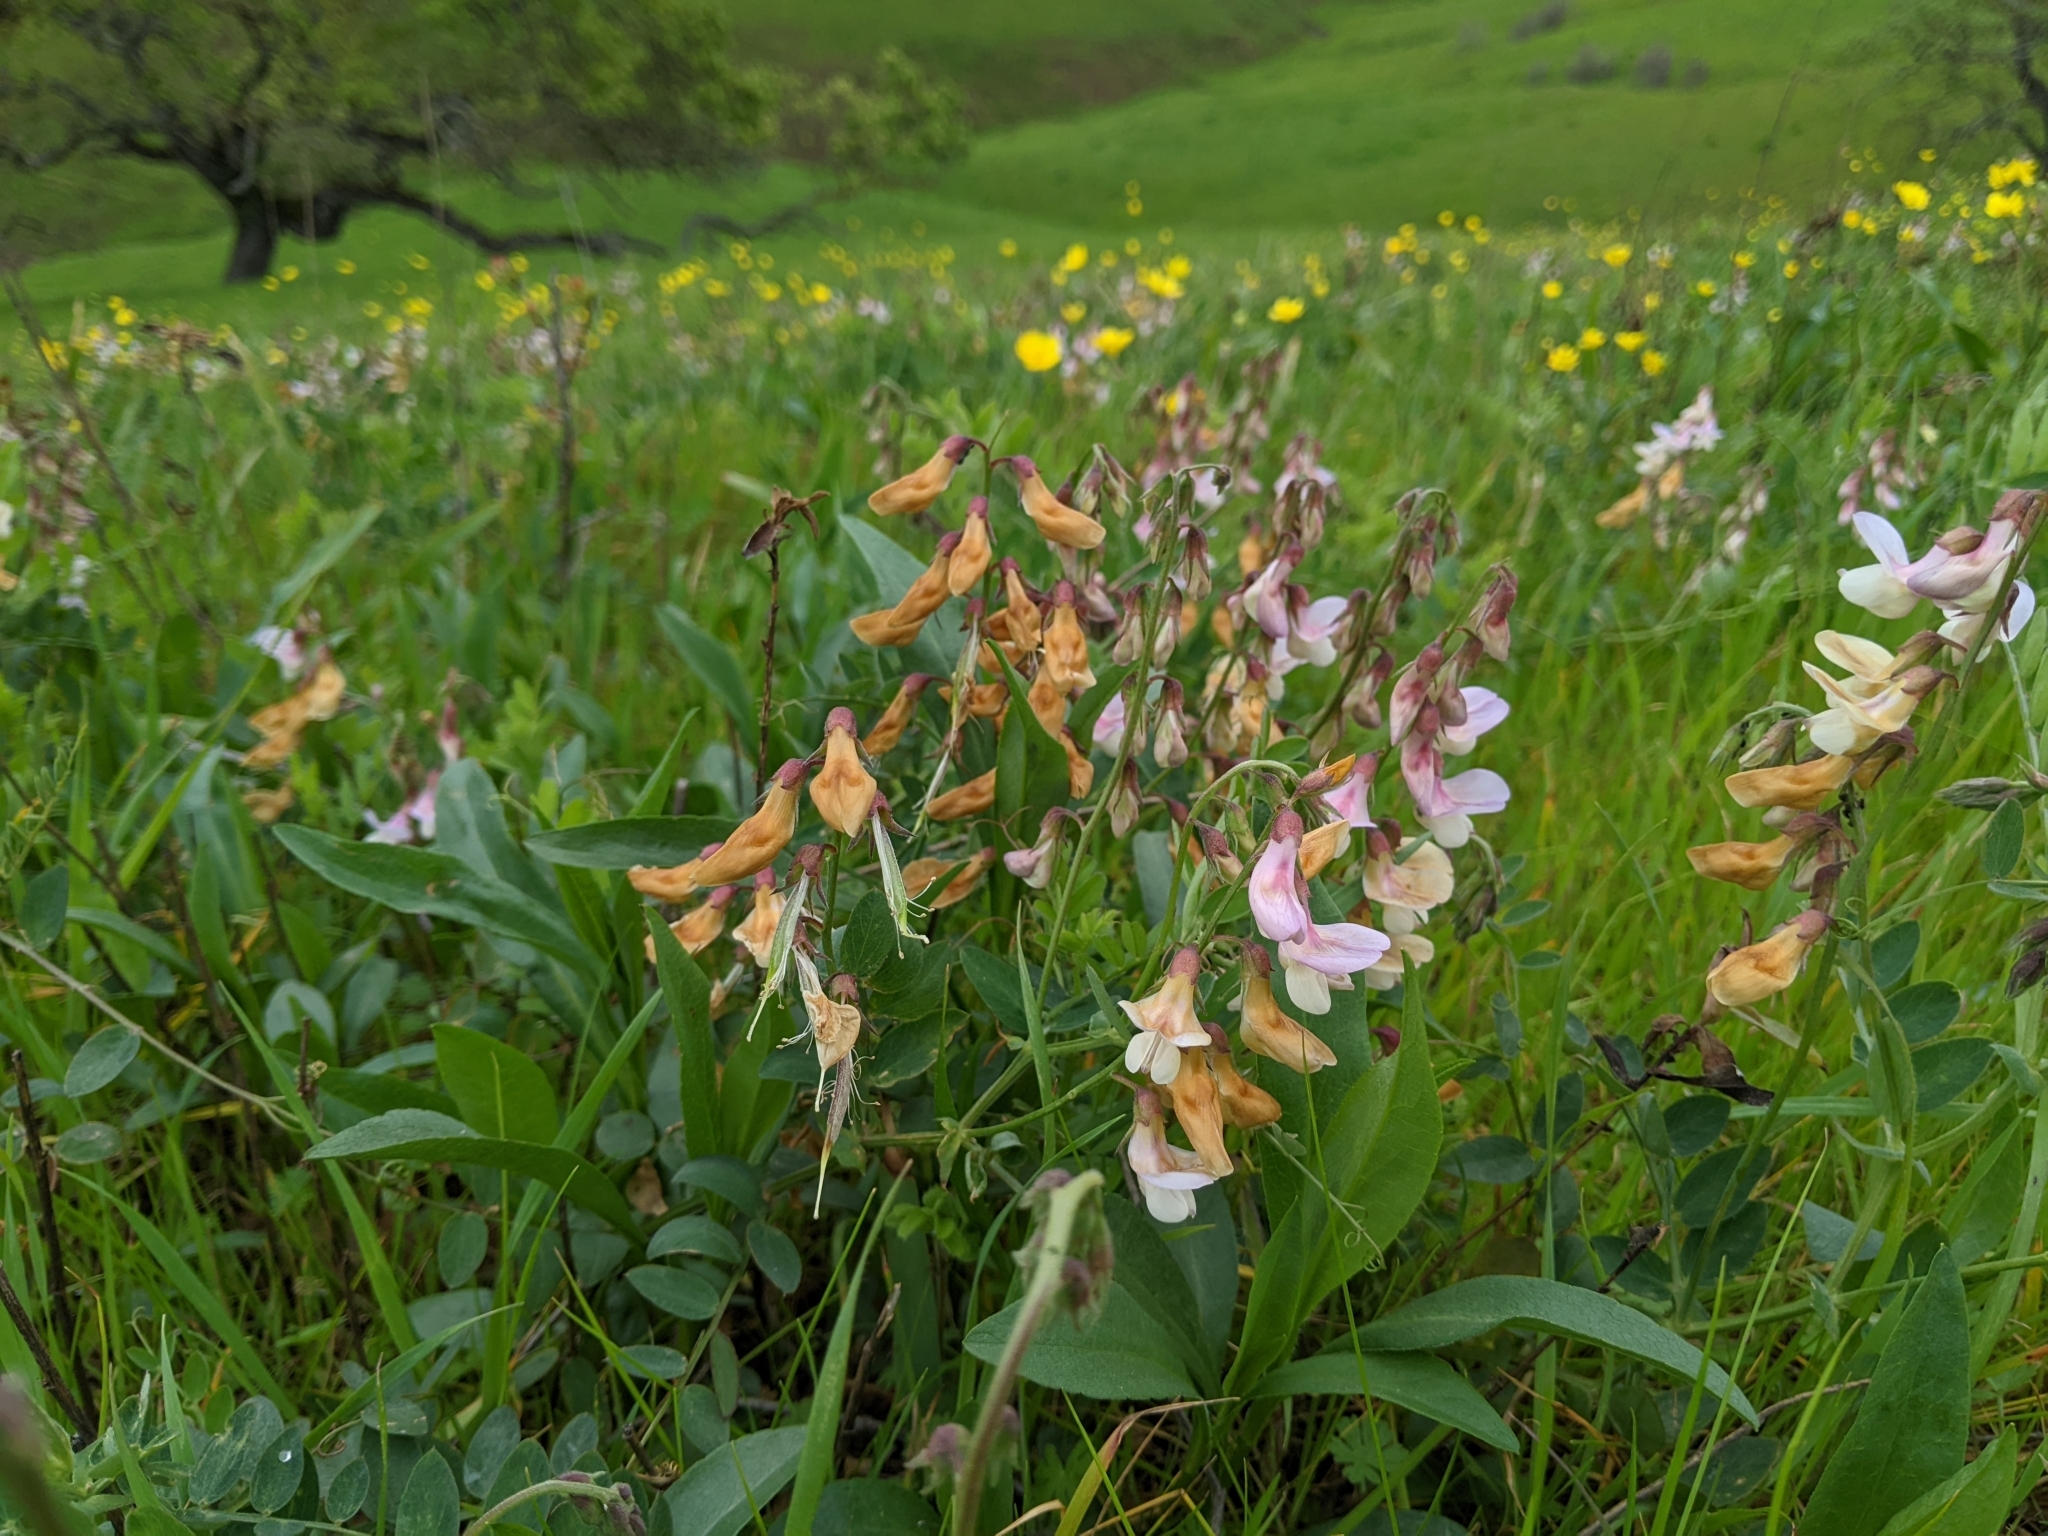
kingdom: Plantae
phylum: Tracheophyta
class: Magnoliopsida
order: Fabales
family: Fabaceae
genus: Lathyrus
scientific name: Lathyrus vestitus
